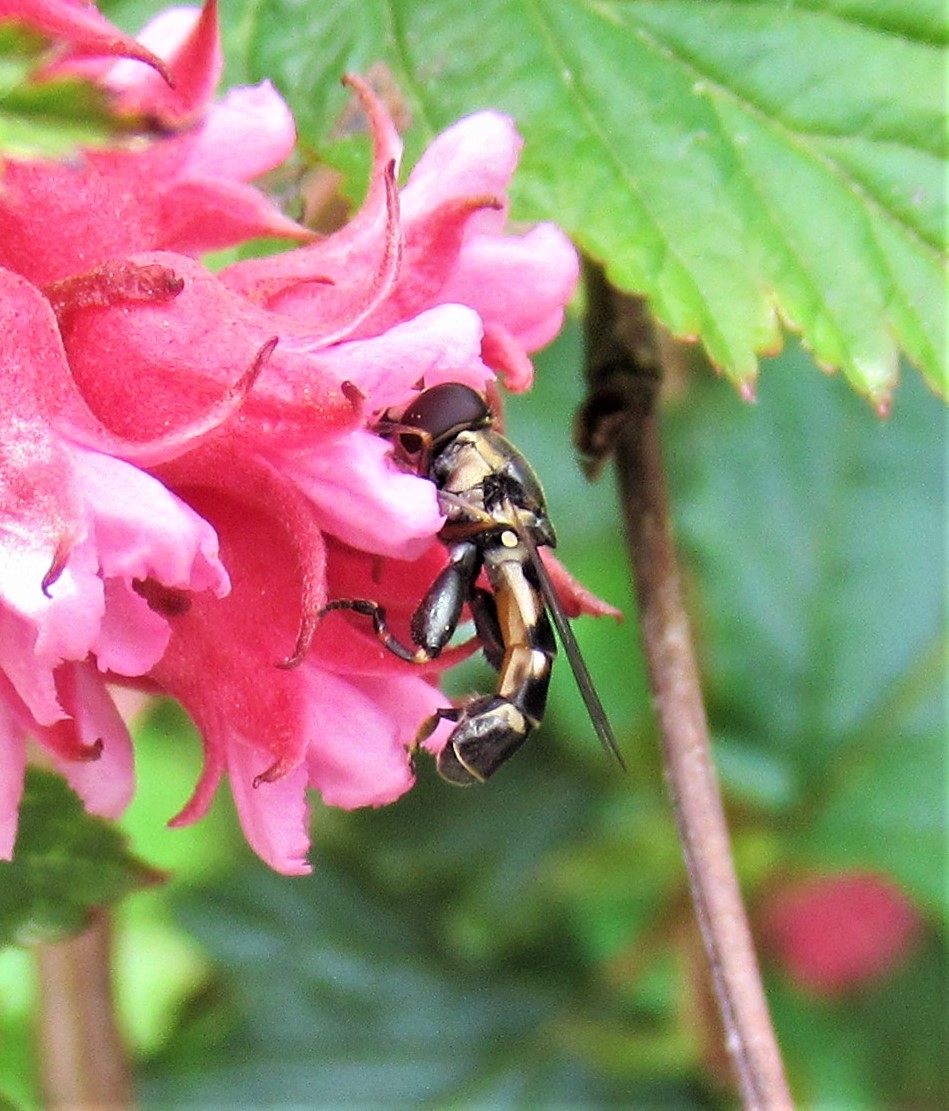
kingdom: Animalia
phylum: Arthropoda
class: Insecta
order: Diptera
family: Syrphidae
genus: Syritta
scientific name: Syritta pipiens
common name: Hover fly
